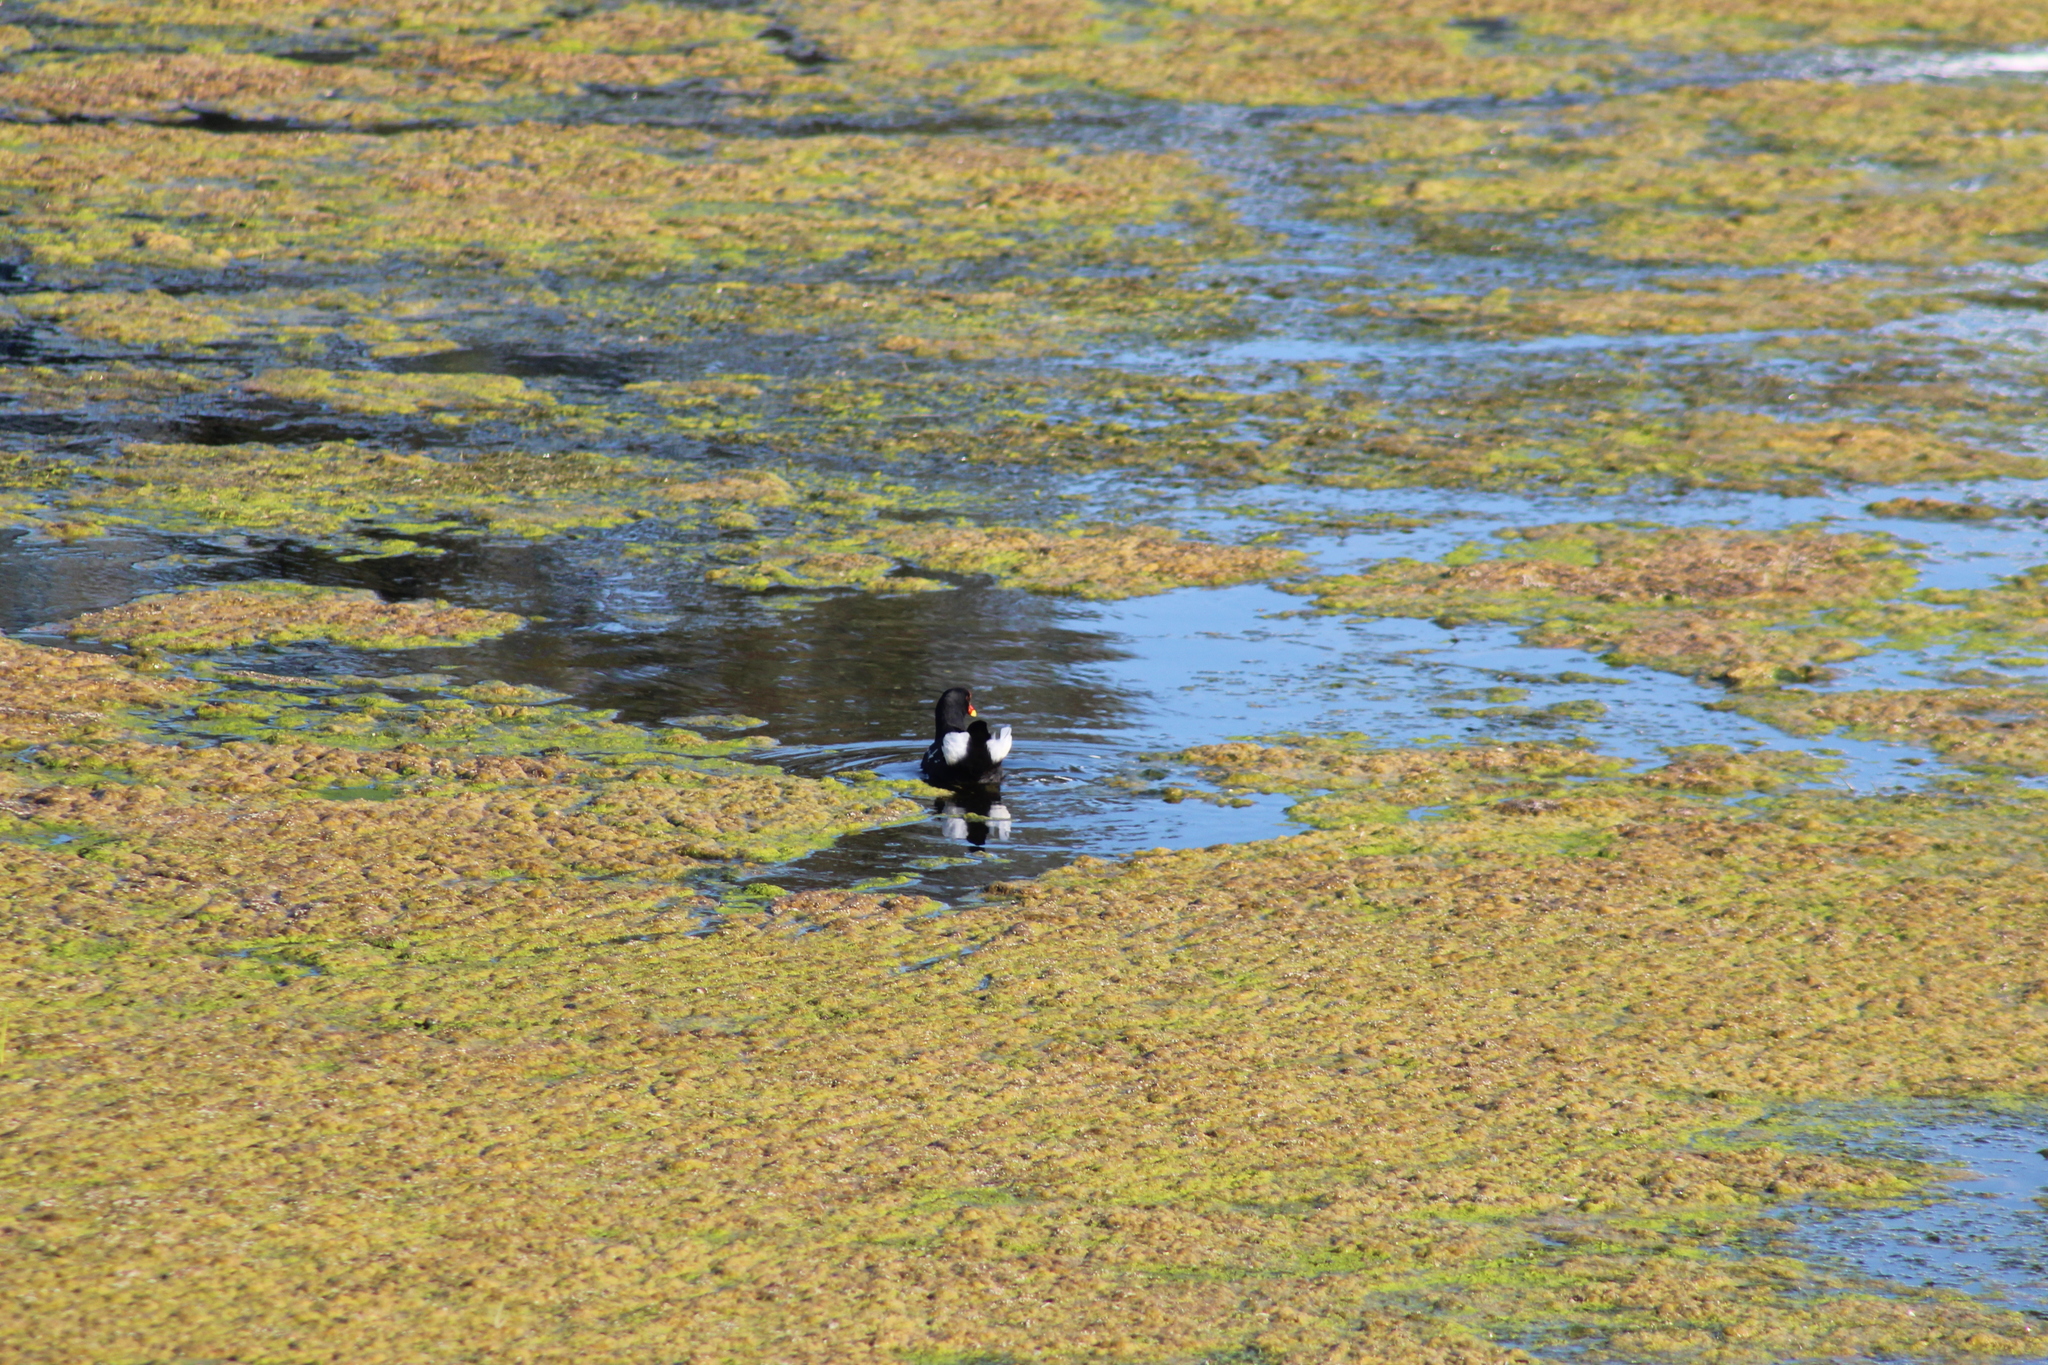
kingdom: Animalia
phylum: Chordata
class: Aves
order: Gruiformes
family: Rallidae
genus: Gallinula
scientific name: Gallinula chloropus
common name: Common moorhen
